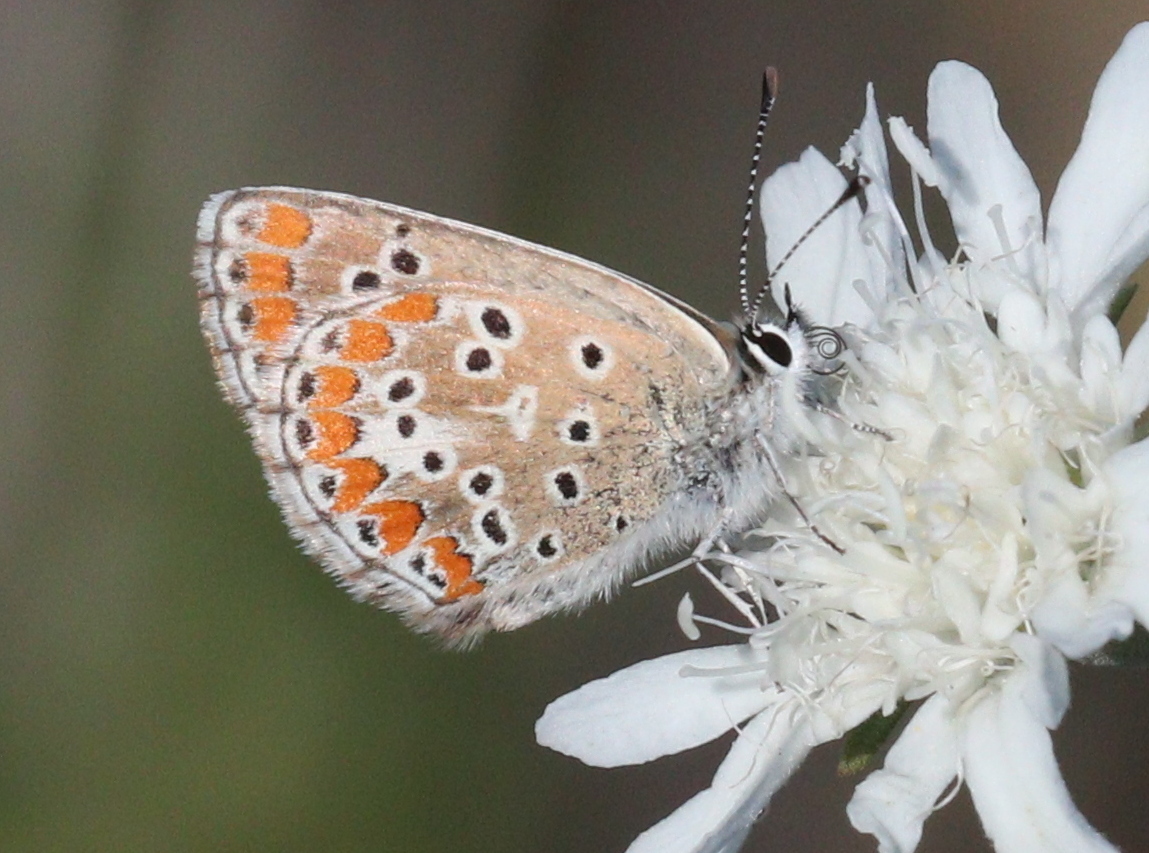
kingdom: Animalia
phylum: Arthropoda
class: Insecta
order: Lepidoptera
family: Lycaenidae
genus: Aricia
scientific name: Aricia cramera
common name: Eschscholtz´s brown  argus
